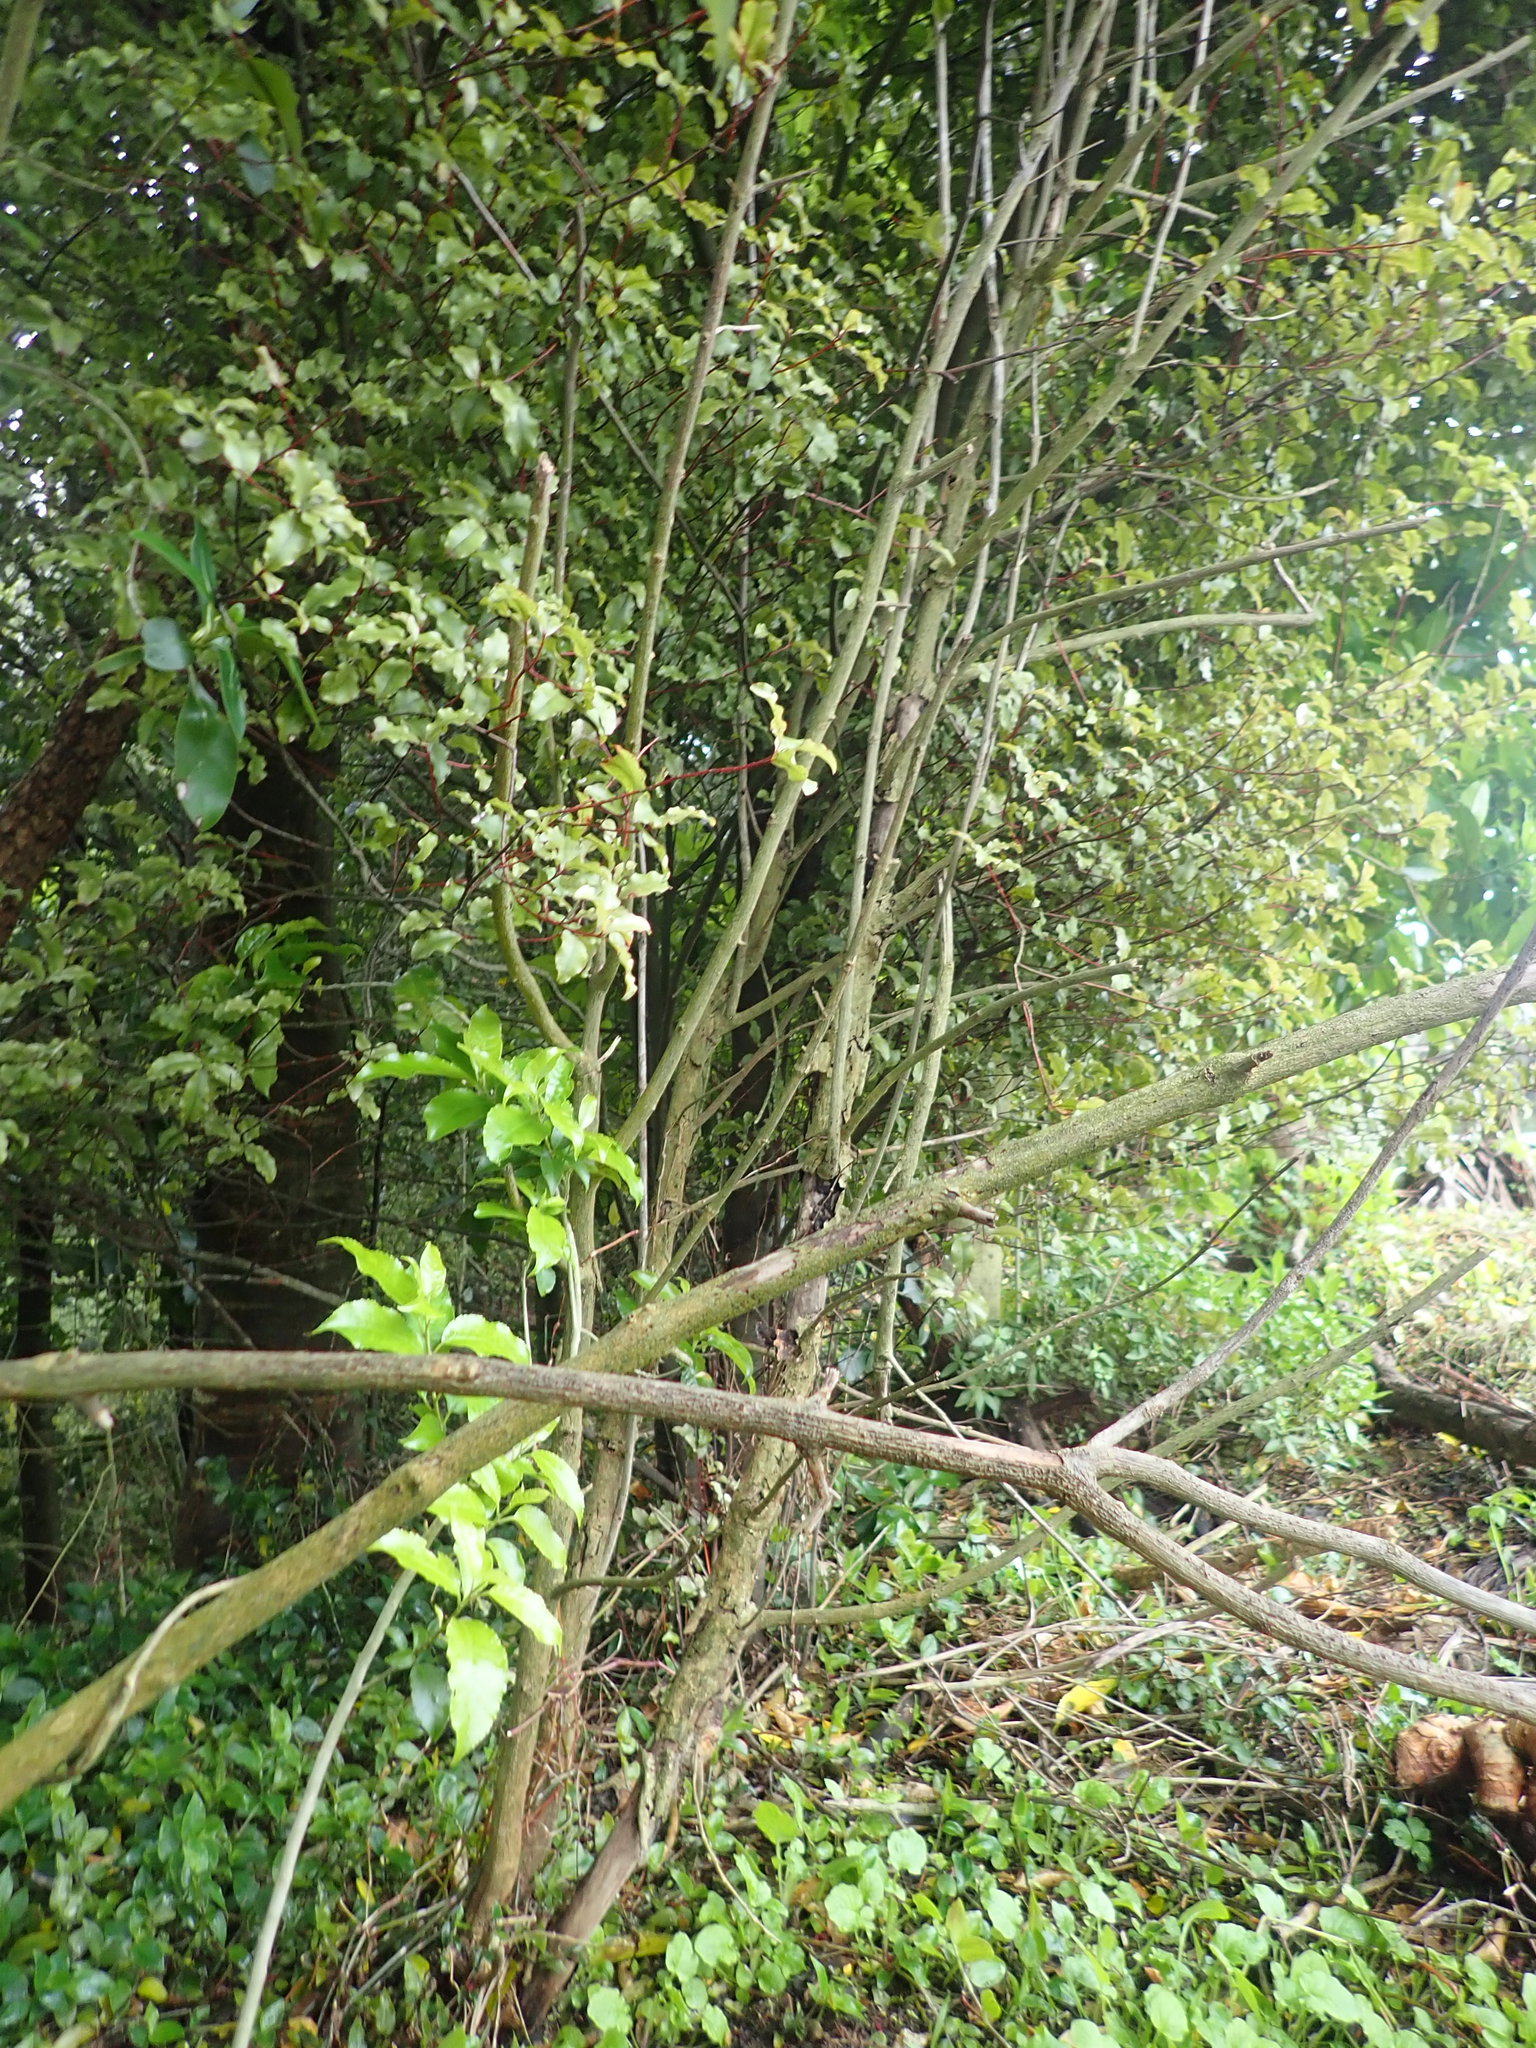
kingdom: Plantae
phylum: Tracheophyta
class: Magnoliopsida
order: Asterales
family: Asteraceae
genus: Lapsana
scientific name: Lapsana communis
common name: Nipplewort
